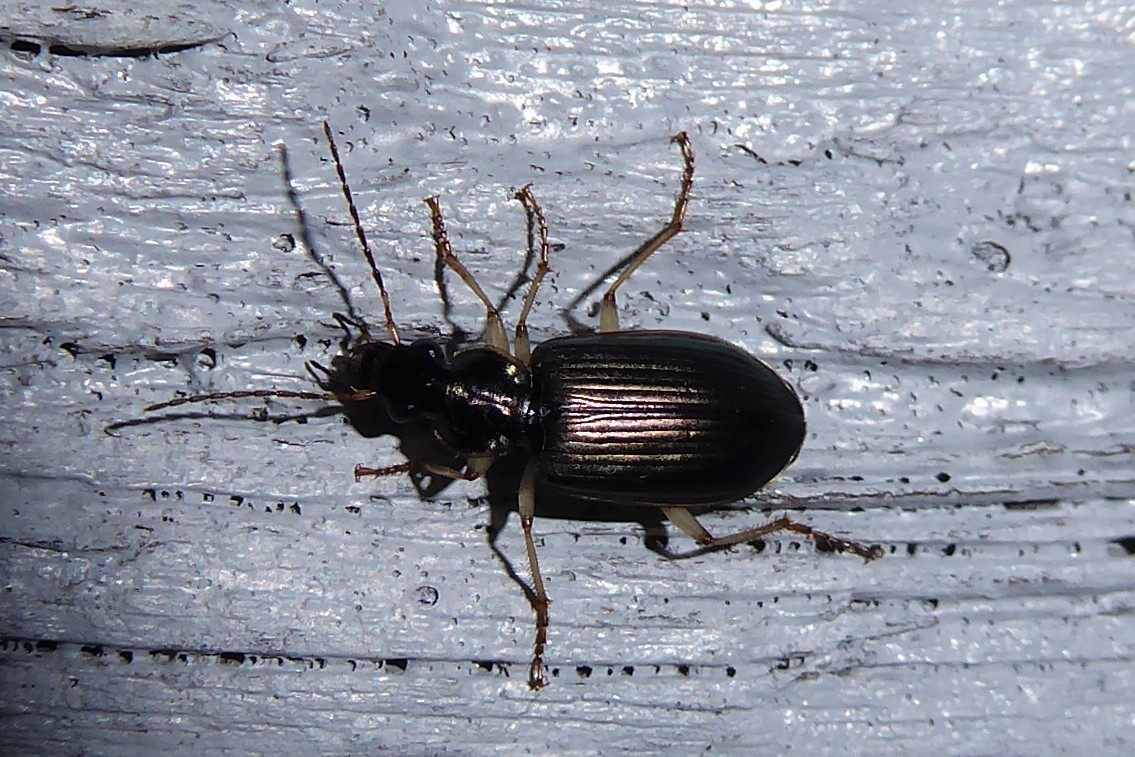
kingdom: Animalia
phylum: Arthropoda
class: Insecta
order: Coleoptera
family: Carabidae
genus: Notagonum
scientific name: Notagonum submetallicum
